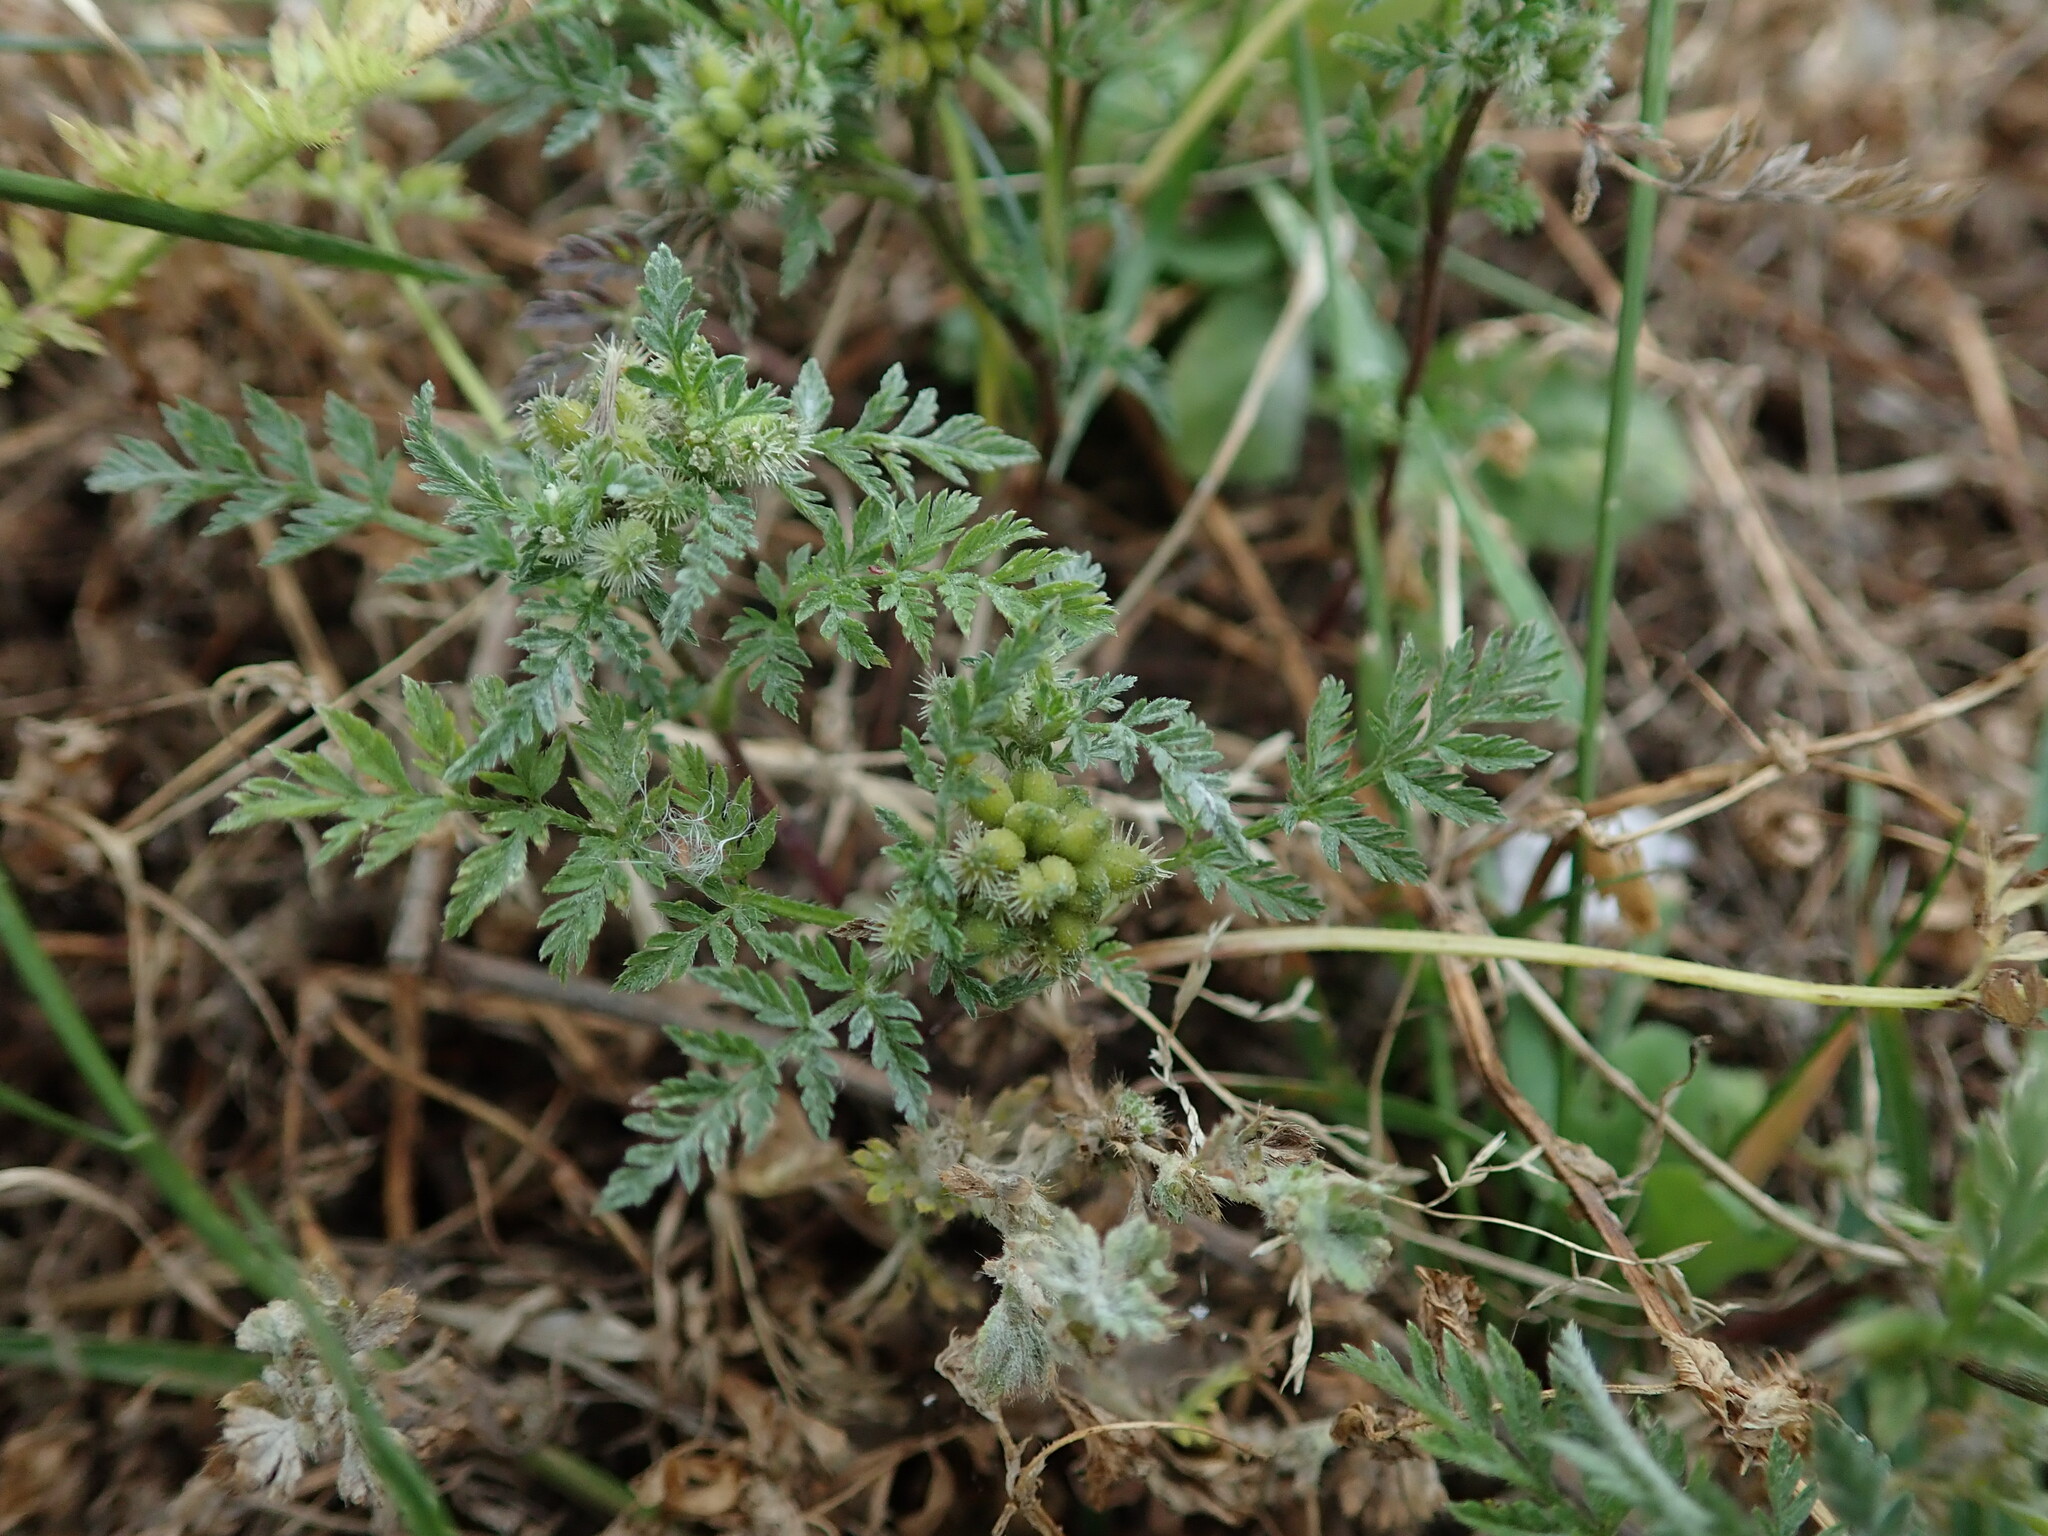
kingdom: Plantae
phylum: Tracheophyta
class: Magnoliopsida
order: Apiales
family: Apiaceae
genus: Torilis
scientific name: Torilis nodosa
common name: Knotted hedge-parsley
